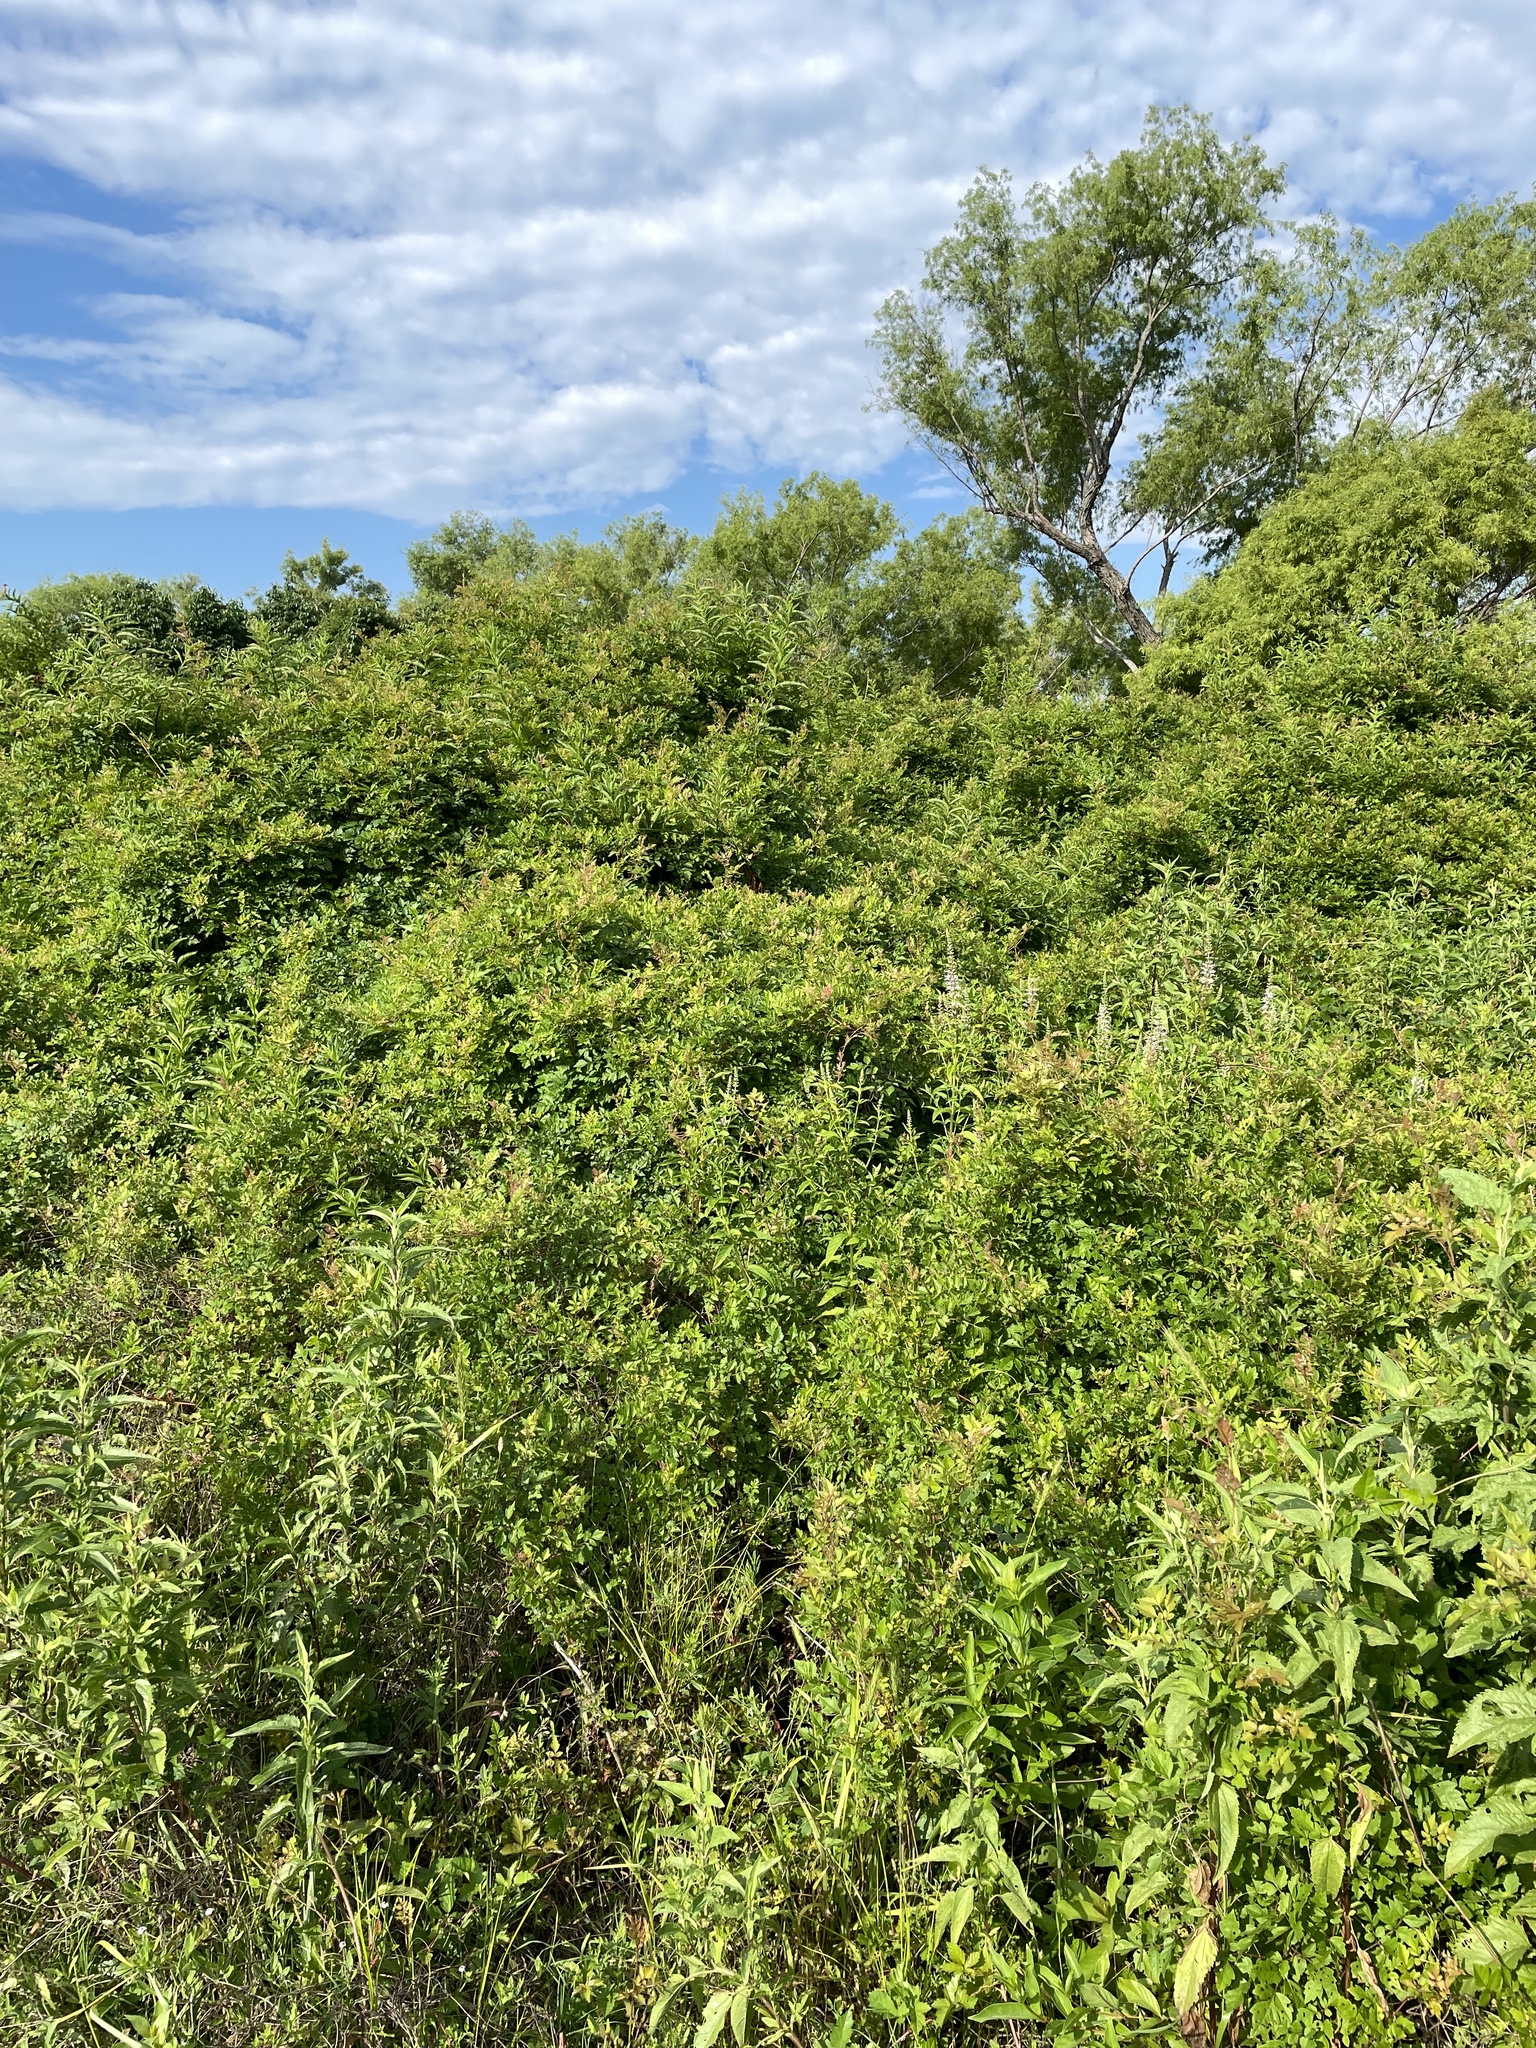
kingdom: Plantae
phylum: Tracheophyta
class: Magnoliopsida
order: Vitales
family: Vitaceae
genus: Nekemias
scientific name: Nekemias arborea
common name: Peppervine
